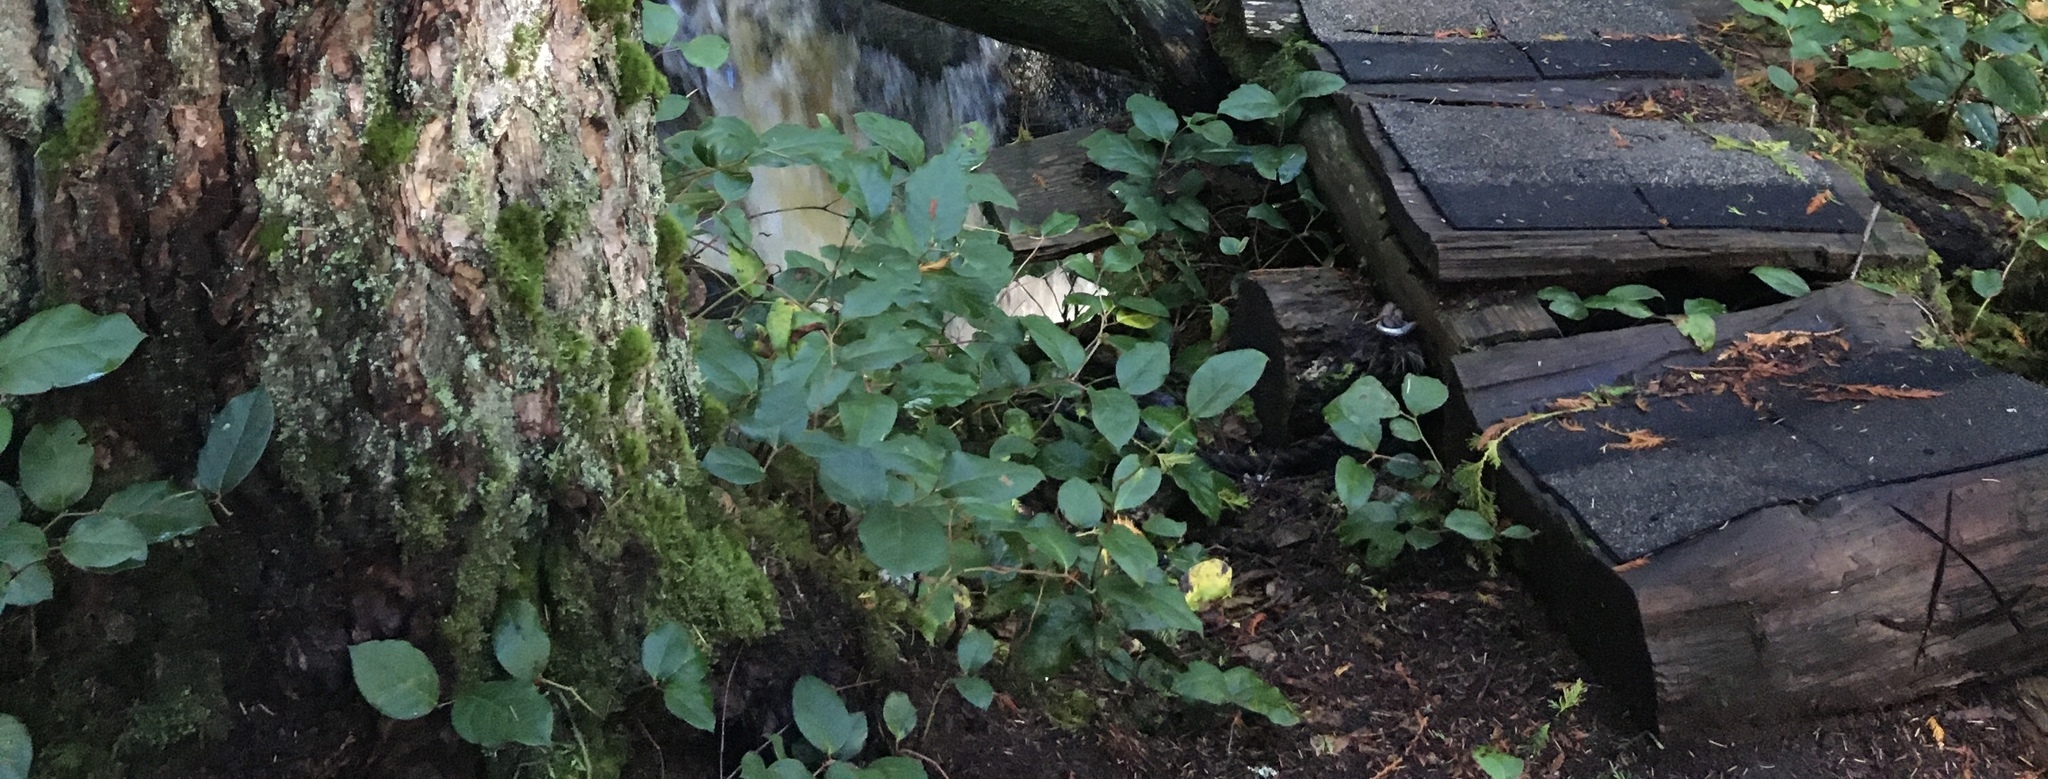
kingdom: Plantae
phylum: Tracheophyta
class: Magnoliopsida
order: Ericales
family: Ericaceae
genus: Gaultheria
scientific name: Gaultheria shallon
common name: Shallon
